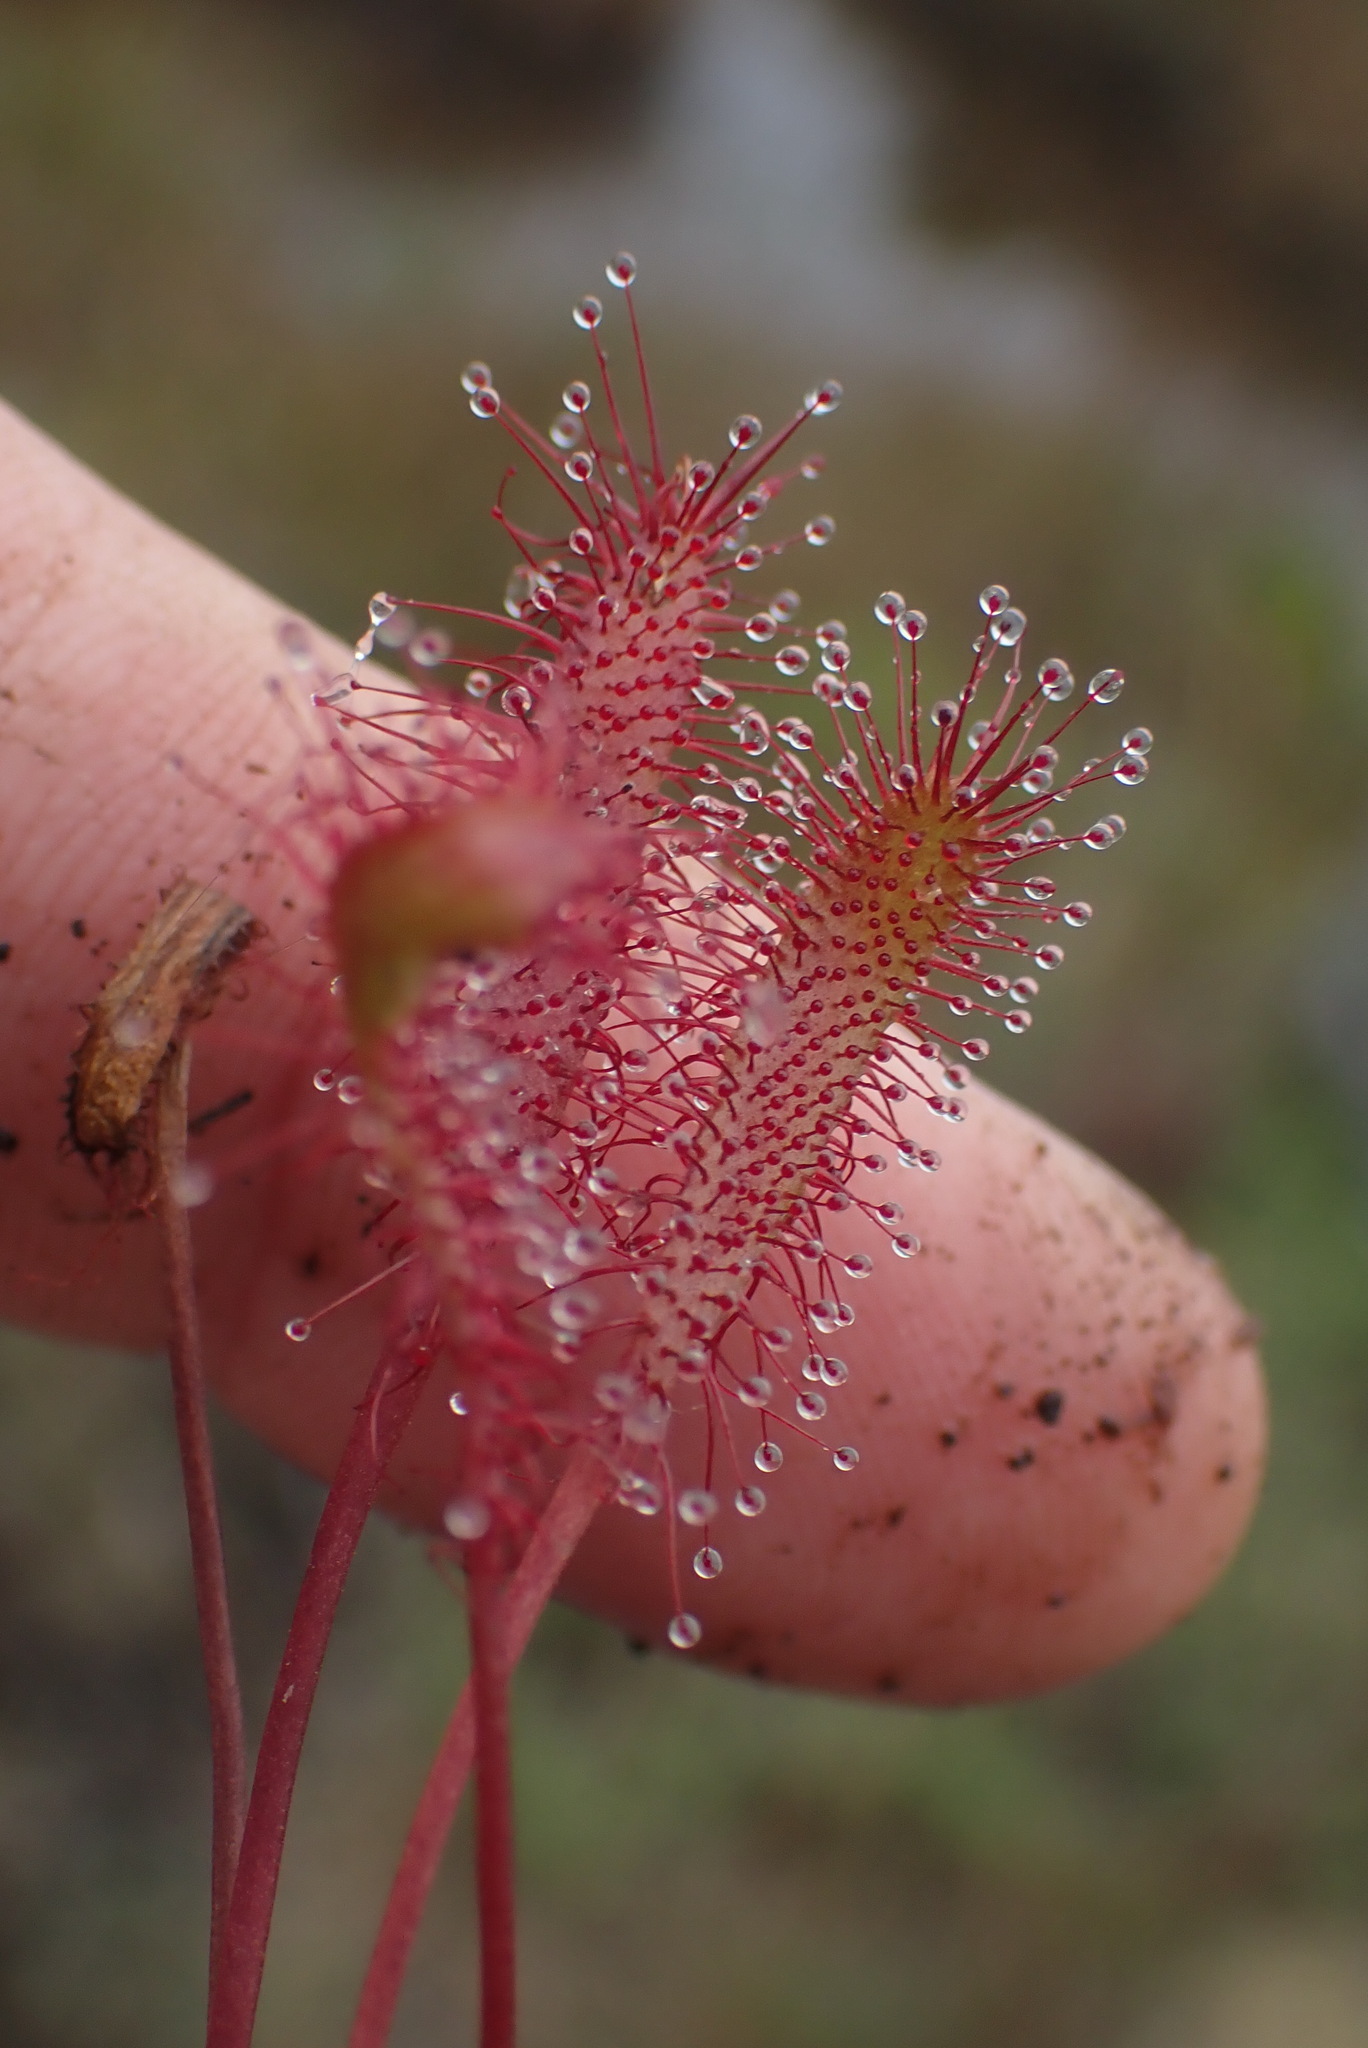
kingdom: Plantae
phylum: Tracheophyta
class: Magnoliopsida
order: Caryophyllales
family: Droseraceae
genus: Drosera
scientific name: Drosera anglica
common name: Great sundew
